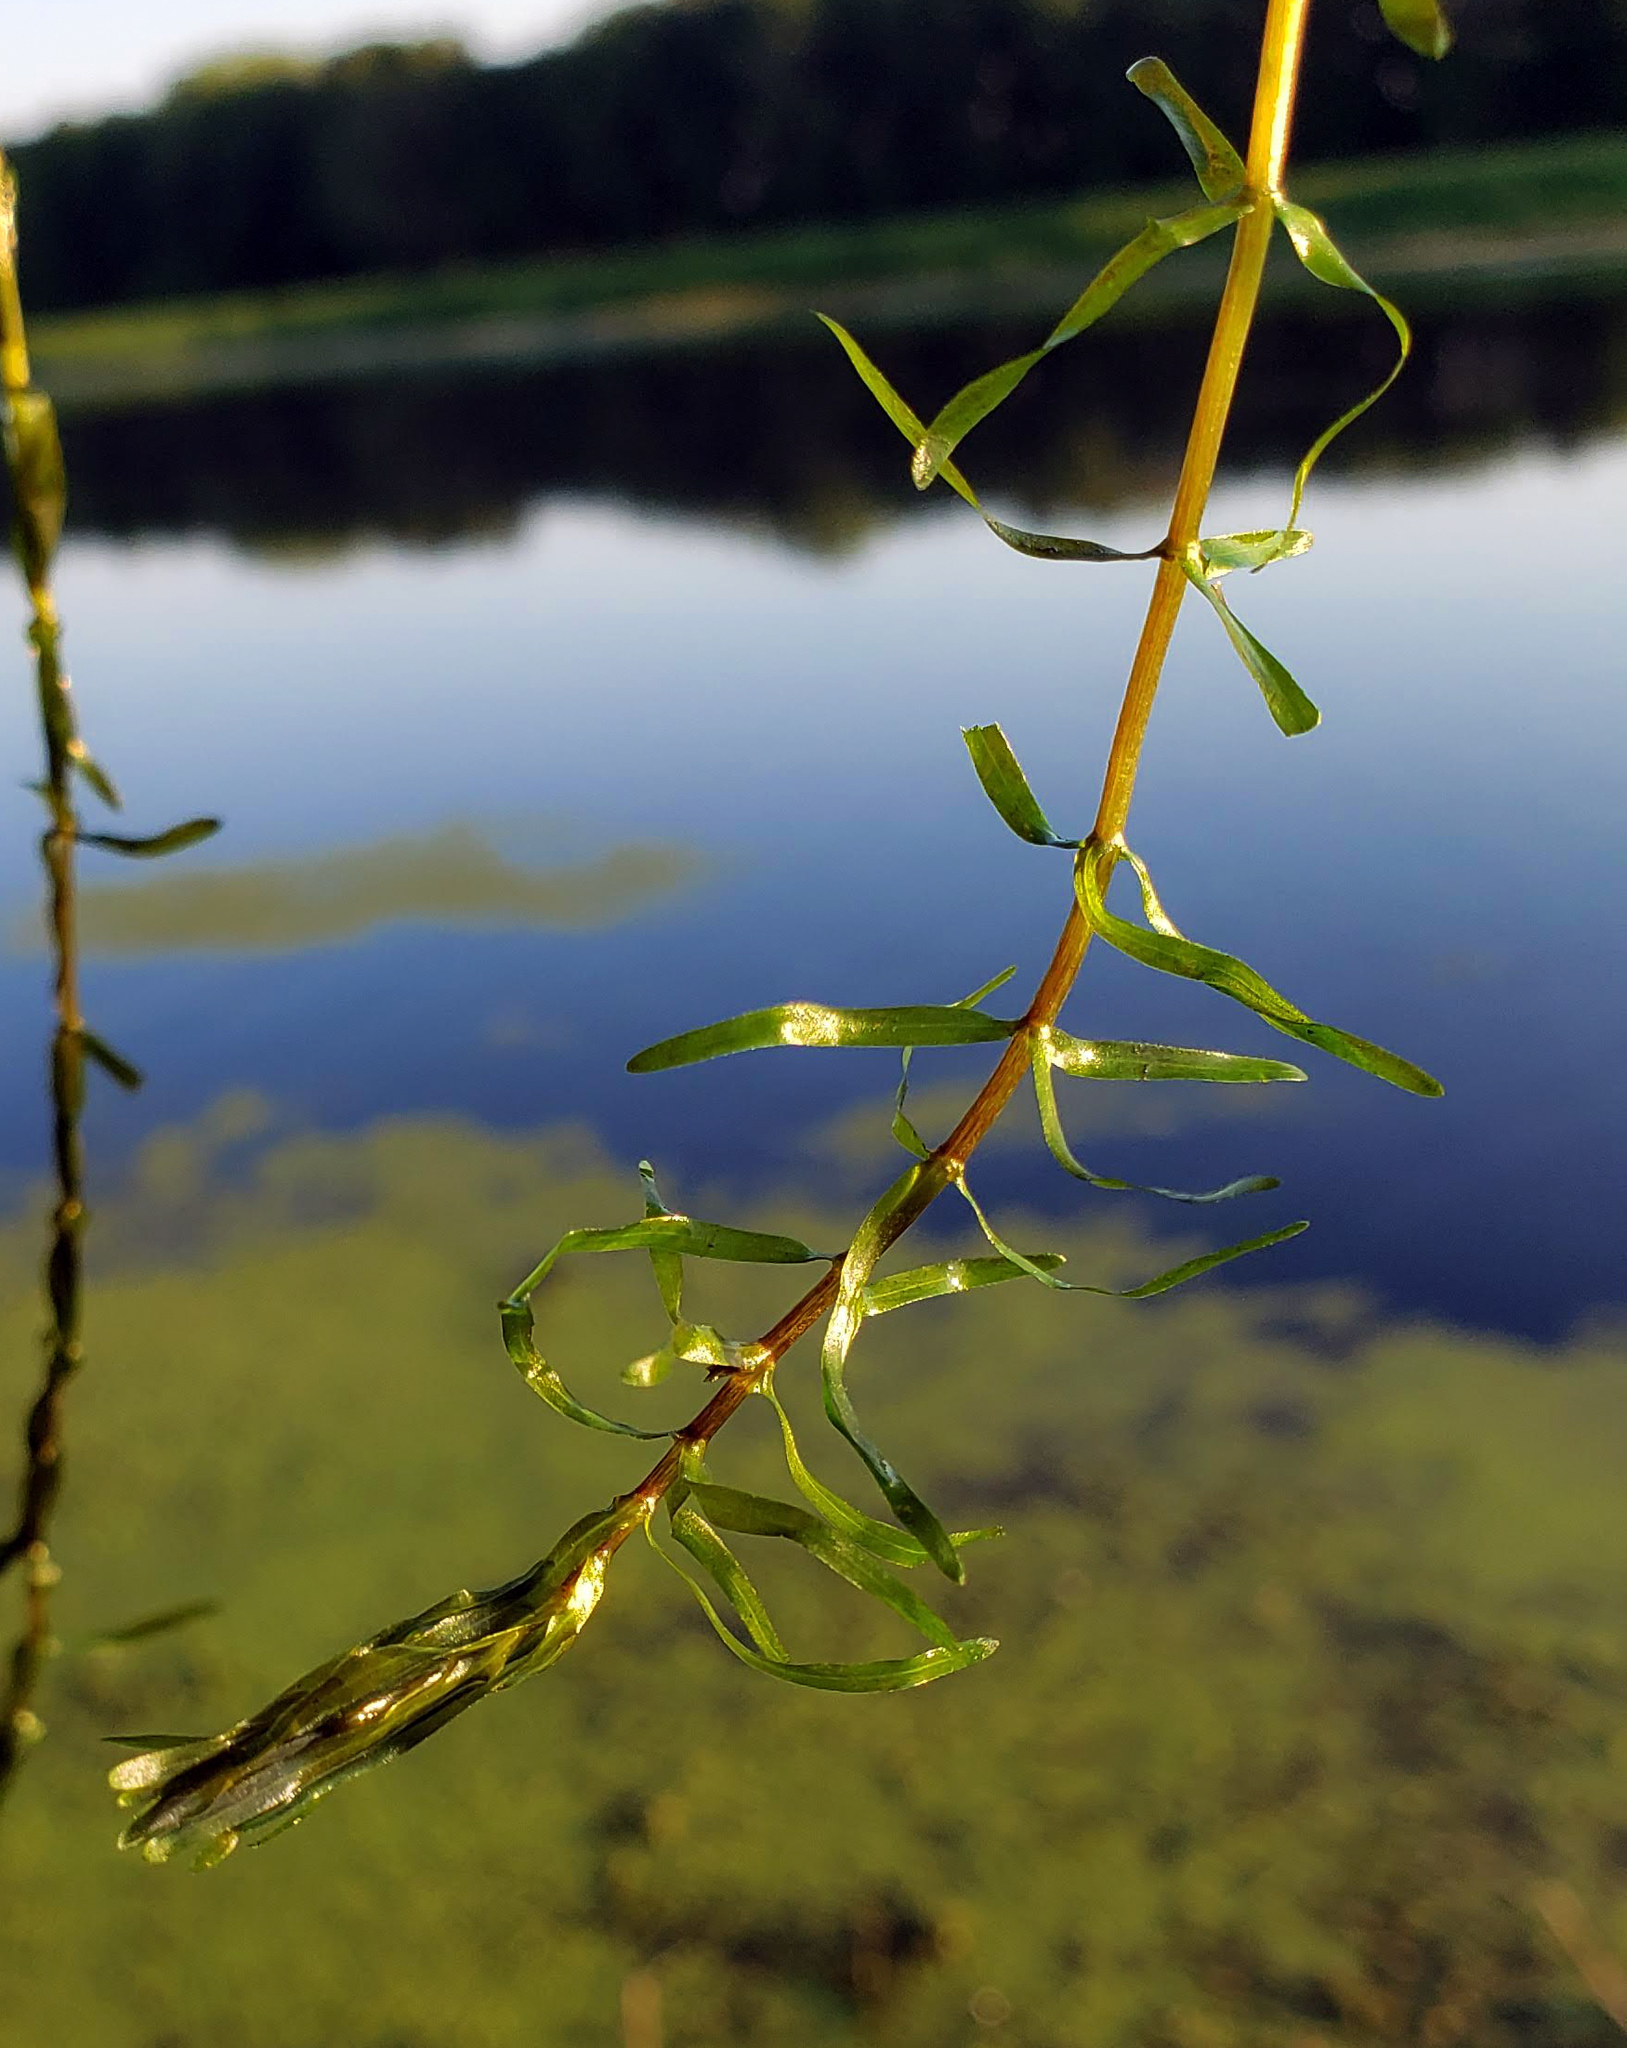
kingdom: Plantae
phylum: Tracheophyta
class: Liliopsida
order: Alismatales
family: Hydrocharitaceae
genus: Elodea
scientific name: Elodea nuttallii
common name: Nuttall's waterweed
